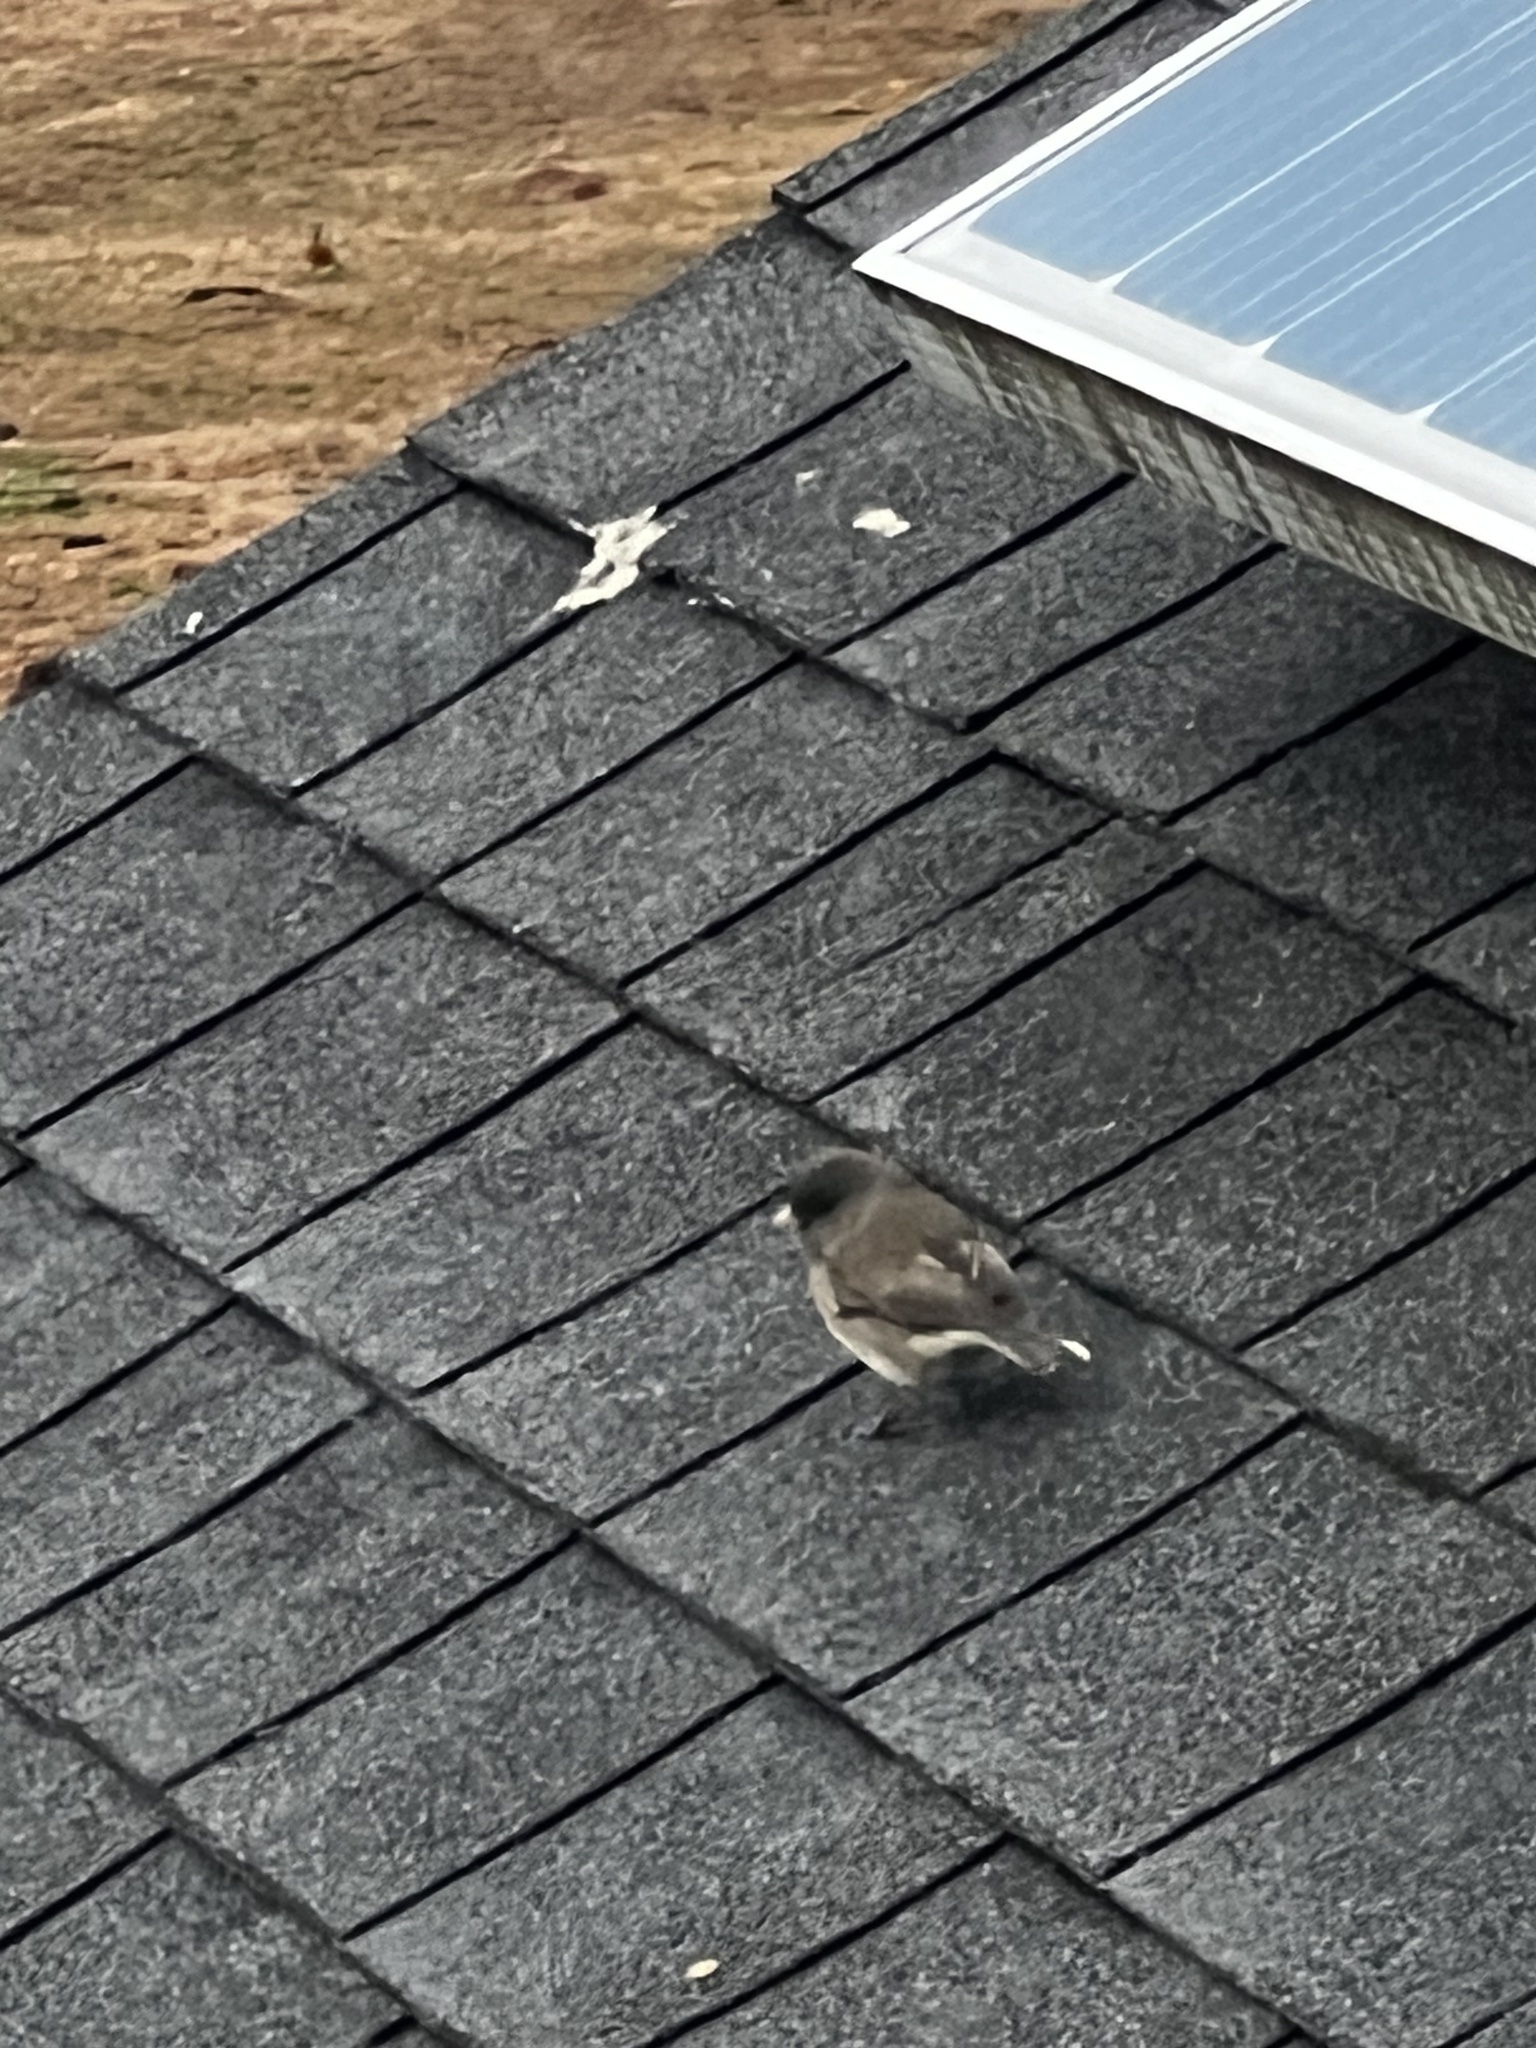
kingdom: Animalia
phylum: Chordata
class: Aves
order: Passeriformes
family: Passerellidae
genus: Junco
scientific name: Junco hyemalis
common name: Dark-eyed junco
